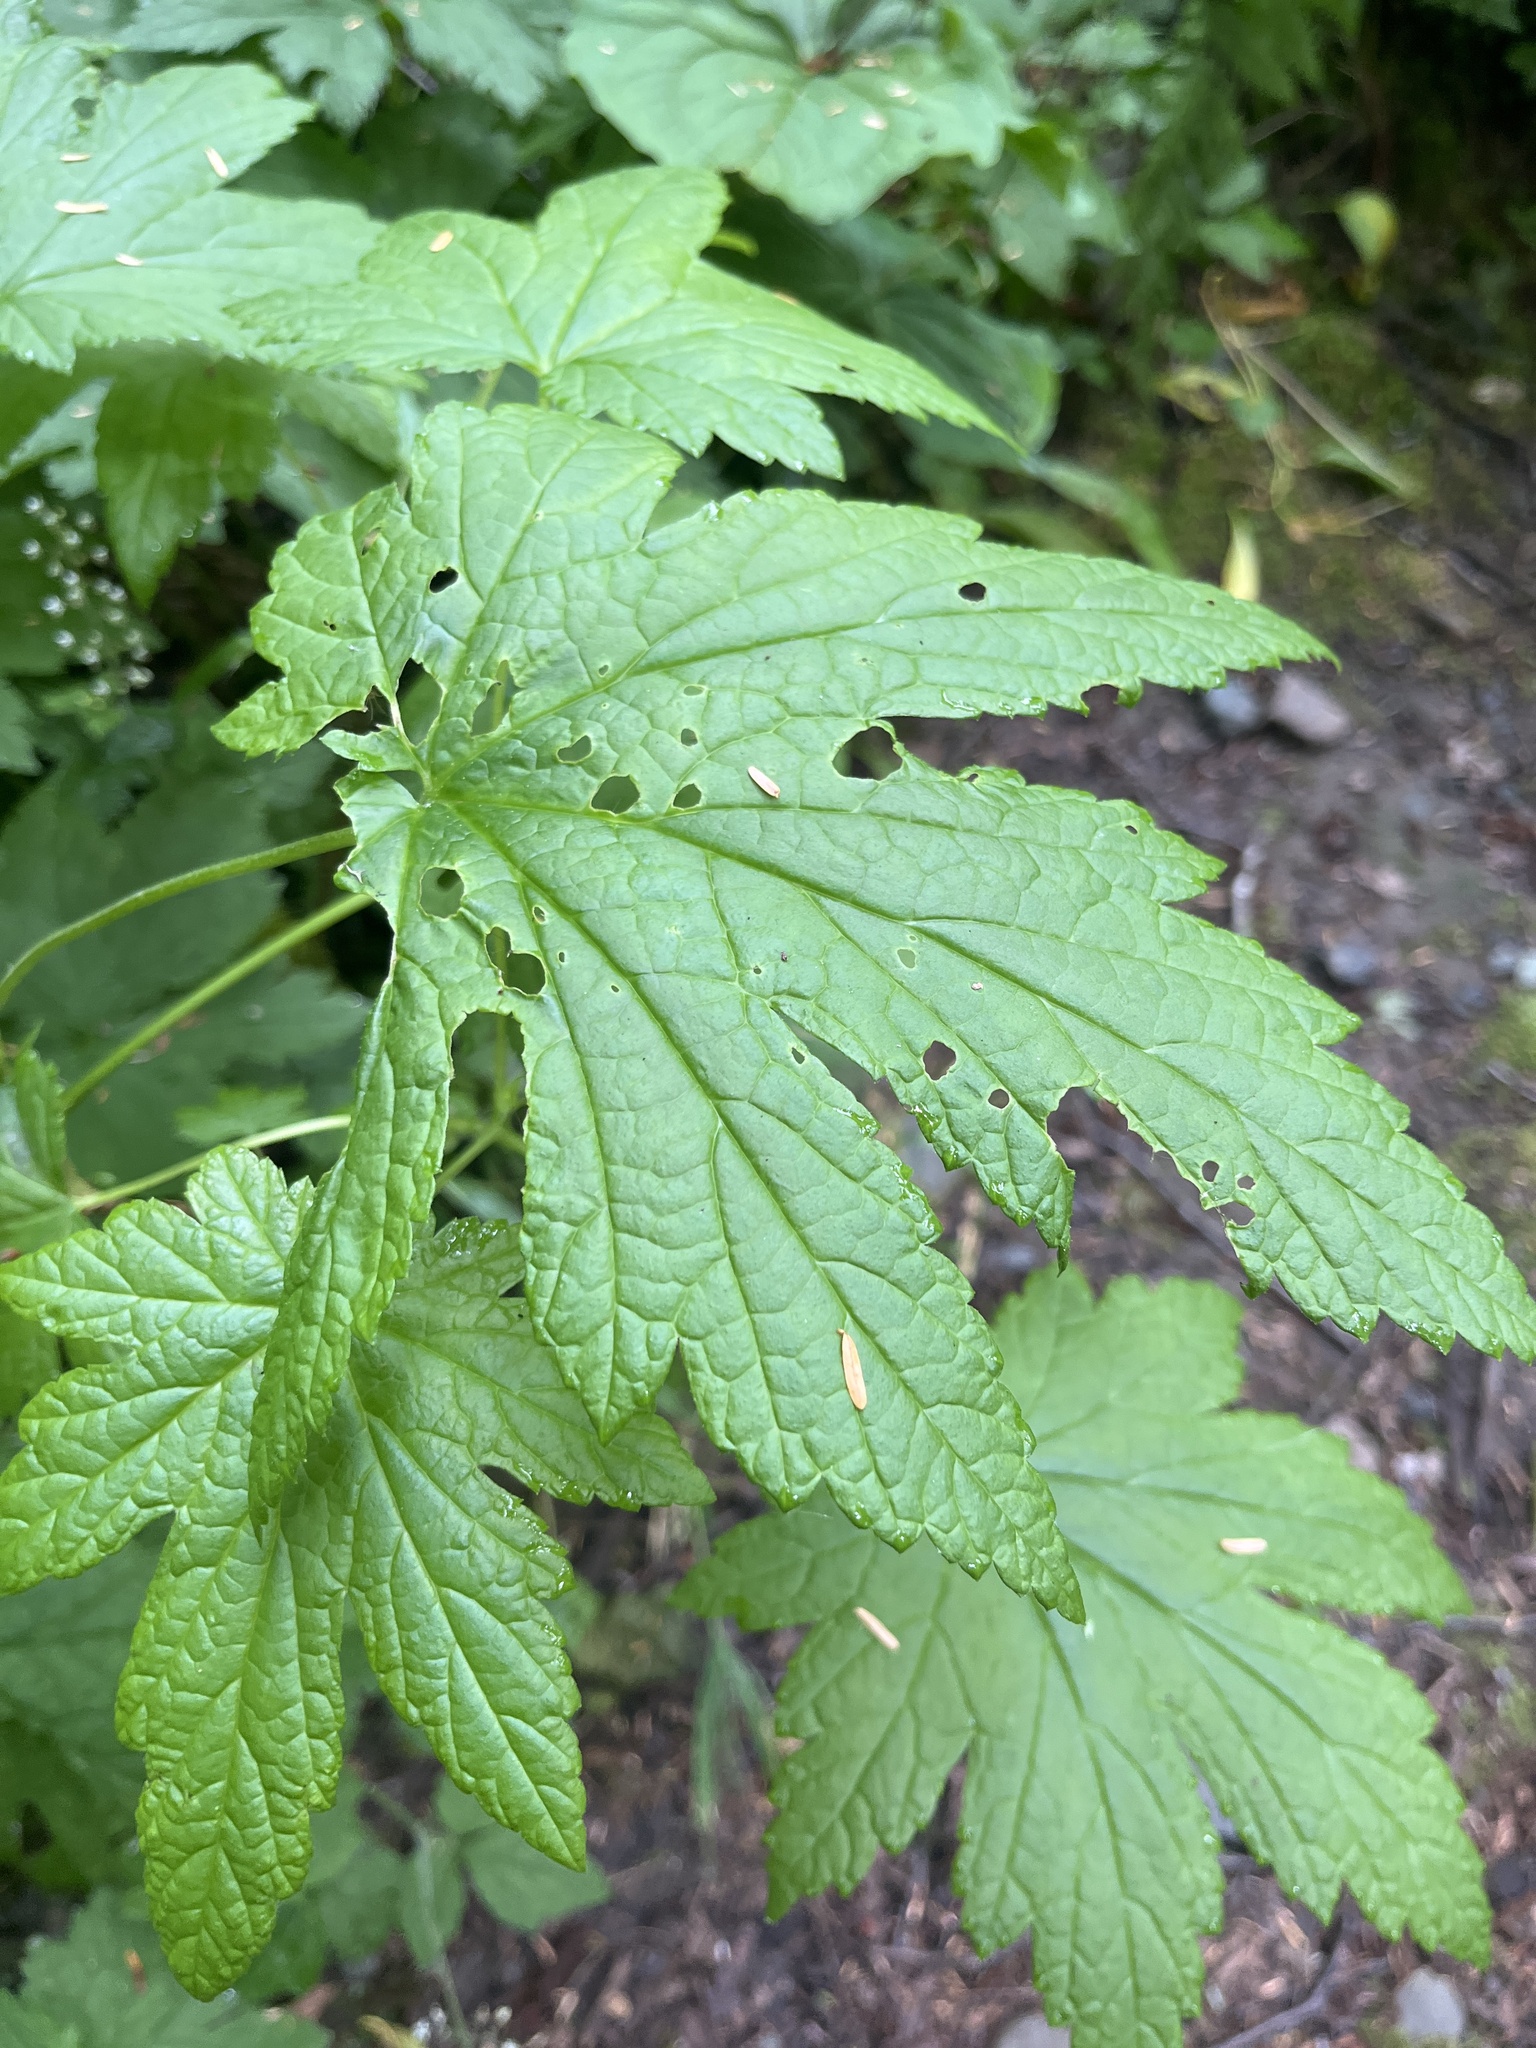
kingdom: Plantae
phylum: Tracheophyta
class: Magnoliopsida
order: Ranunculales
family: Ranunculaceae
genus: Trautvetteria
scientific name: Trautvetteria carolinensis
